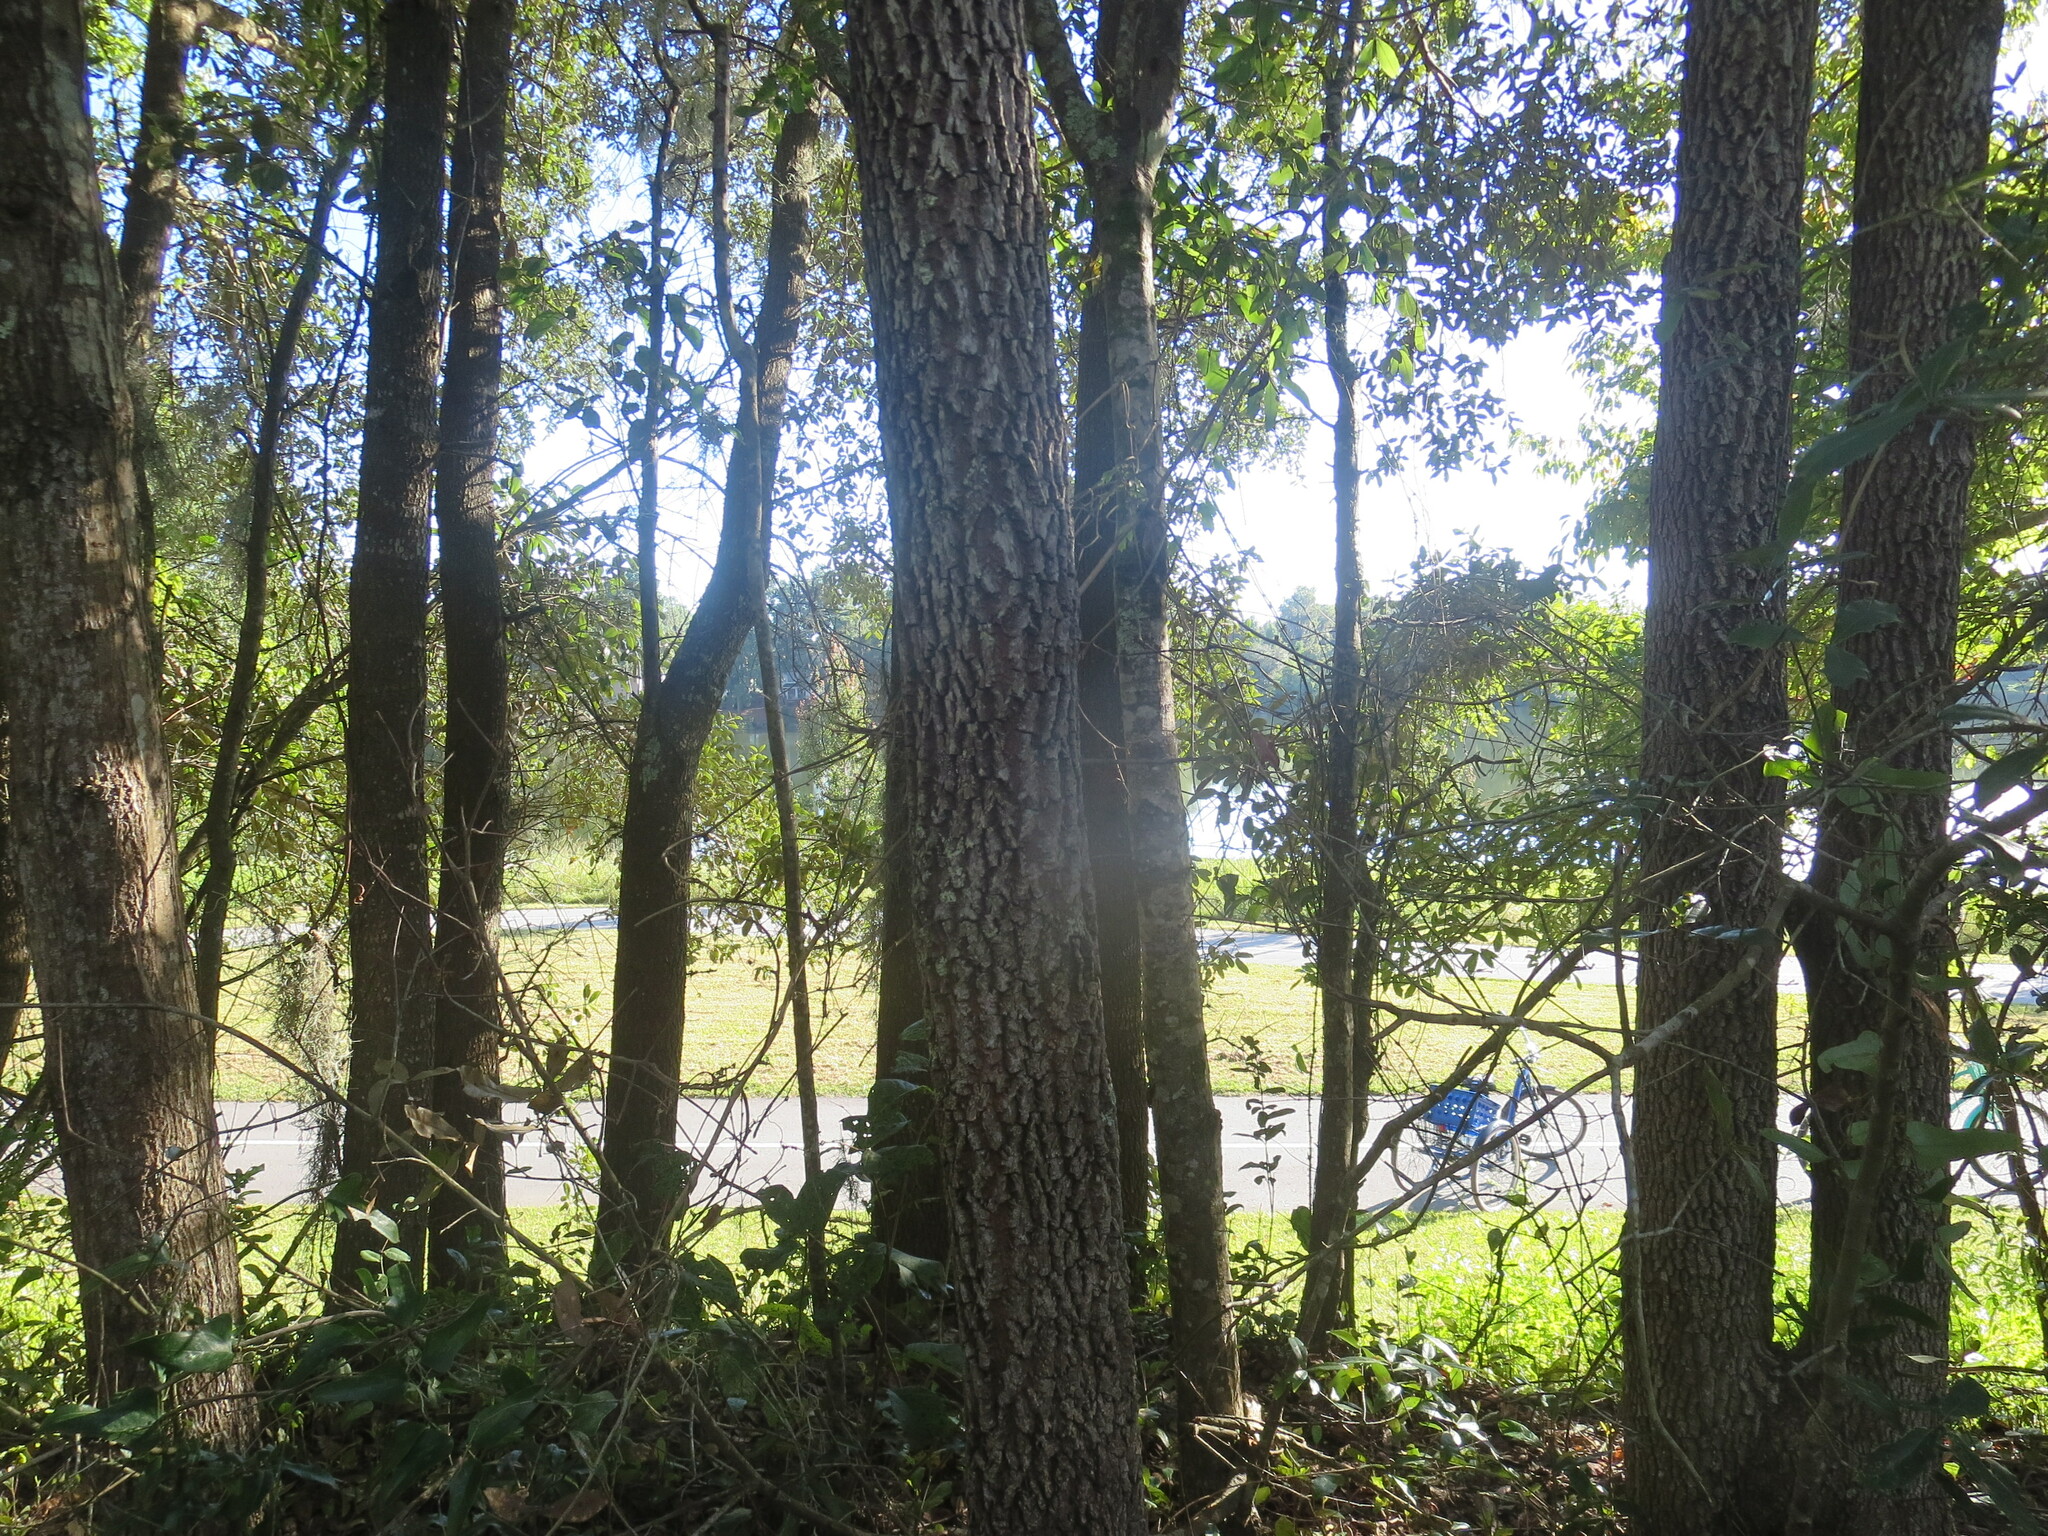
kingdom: Plantae
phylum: Tracheophyta
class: Magnoliopsida
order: Ericales
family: Ebenaceae
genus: Diospyros
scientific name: Diospyros virginiana
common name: Persimmon
